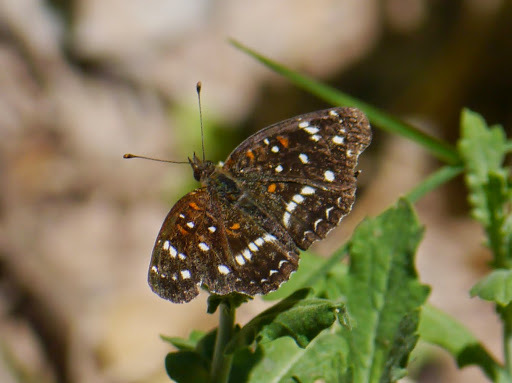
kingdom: Animalia
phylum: Arthropoda
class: Insecta
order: Lepidoptera
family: Nymphalidae
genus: Anthanassa
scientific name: Anthanassa texana
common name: Texan crescent
